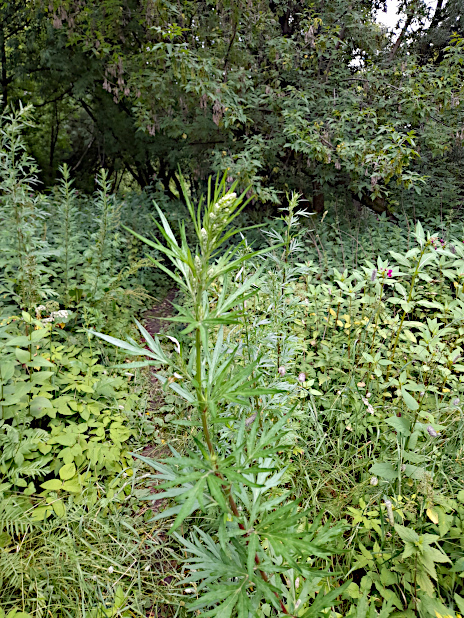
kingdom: Plantae
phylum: Tracheophyta
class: Magnoliopsida
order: Asterales
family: Asteraceae
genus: Artemisia
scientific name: Artemisia vulgaris
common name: Mugwort
